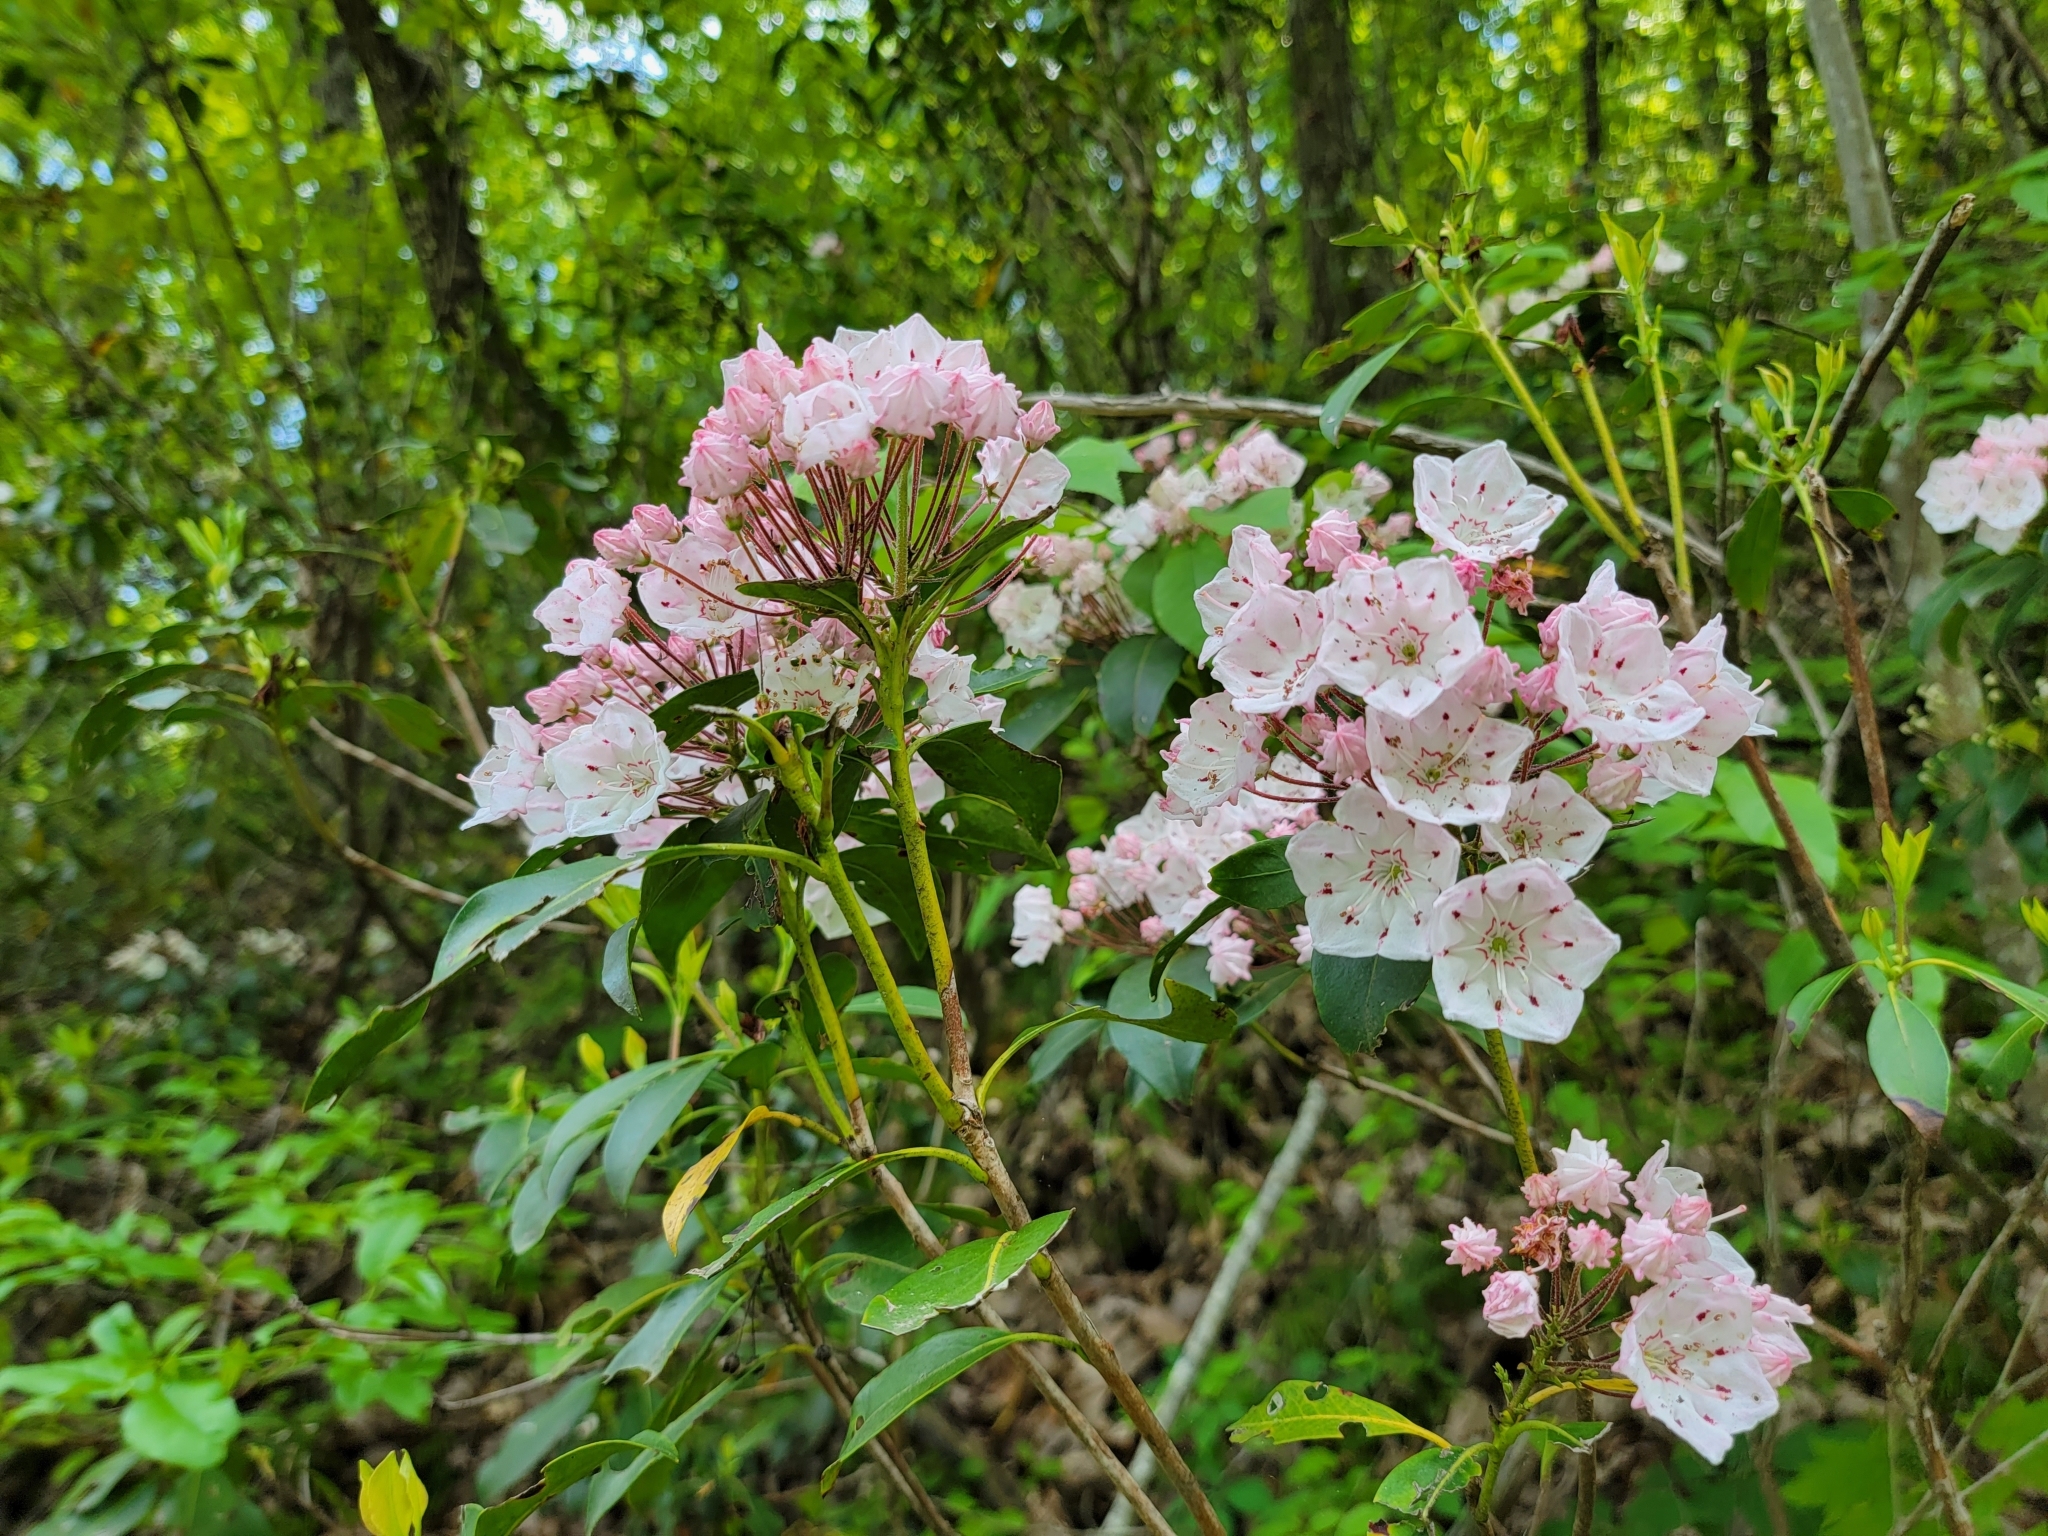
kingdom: Plantae
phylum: Tracheophyta
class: Magnoliopsida
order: Ericales
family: Ericaceae
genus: Kalmia
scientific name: Kalmia latifolia
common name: Mountain-laurel
